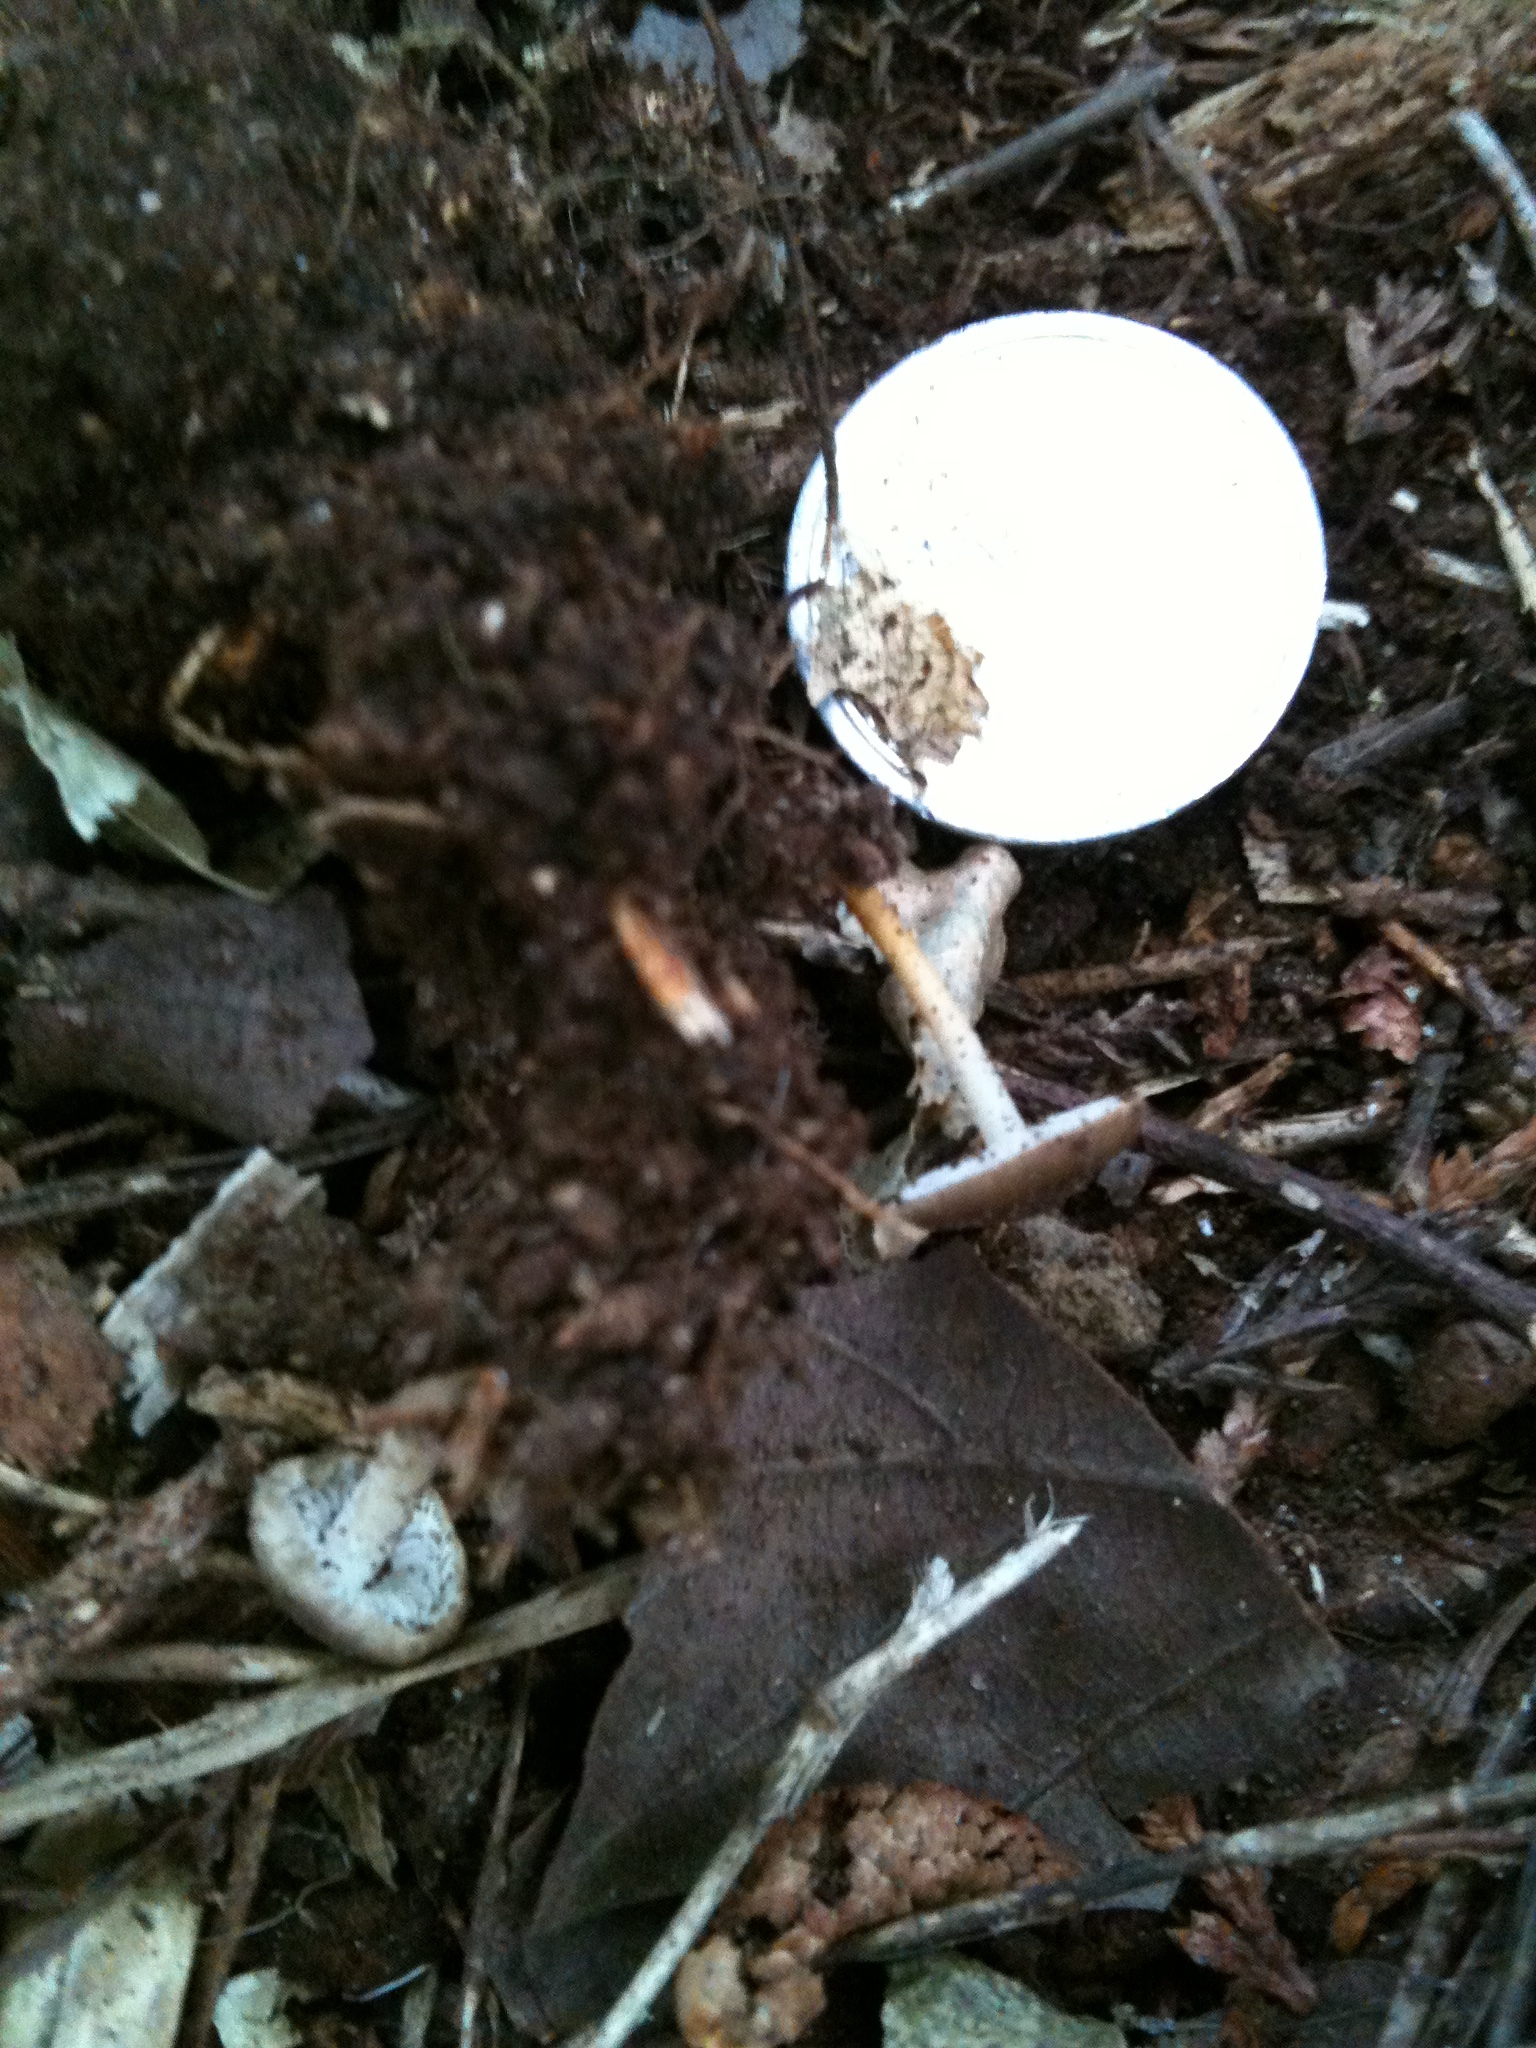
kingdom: Fungi
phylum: Basidiomycota
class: Agaricomycetes
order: Agaricales
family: Physalacriaceae
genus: Strobilurus
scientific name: Strobilurus stephanocystis
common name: Russian conecap
